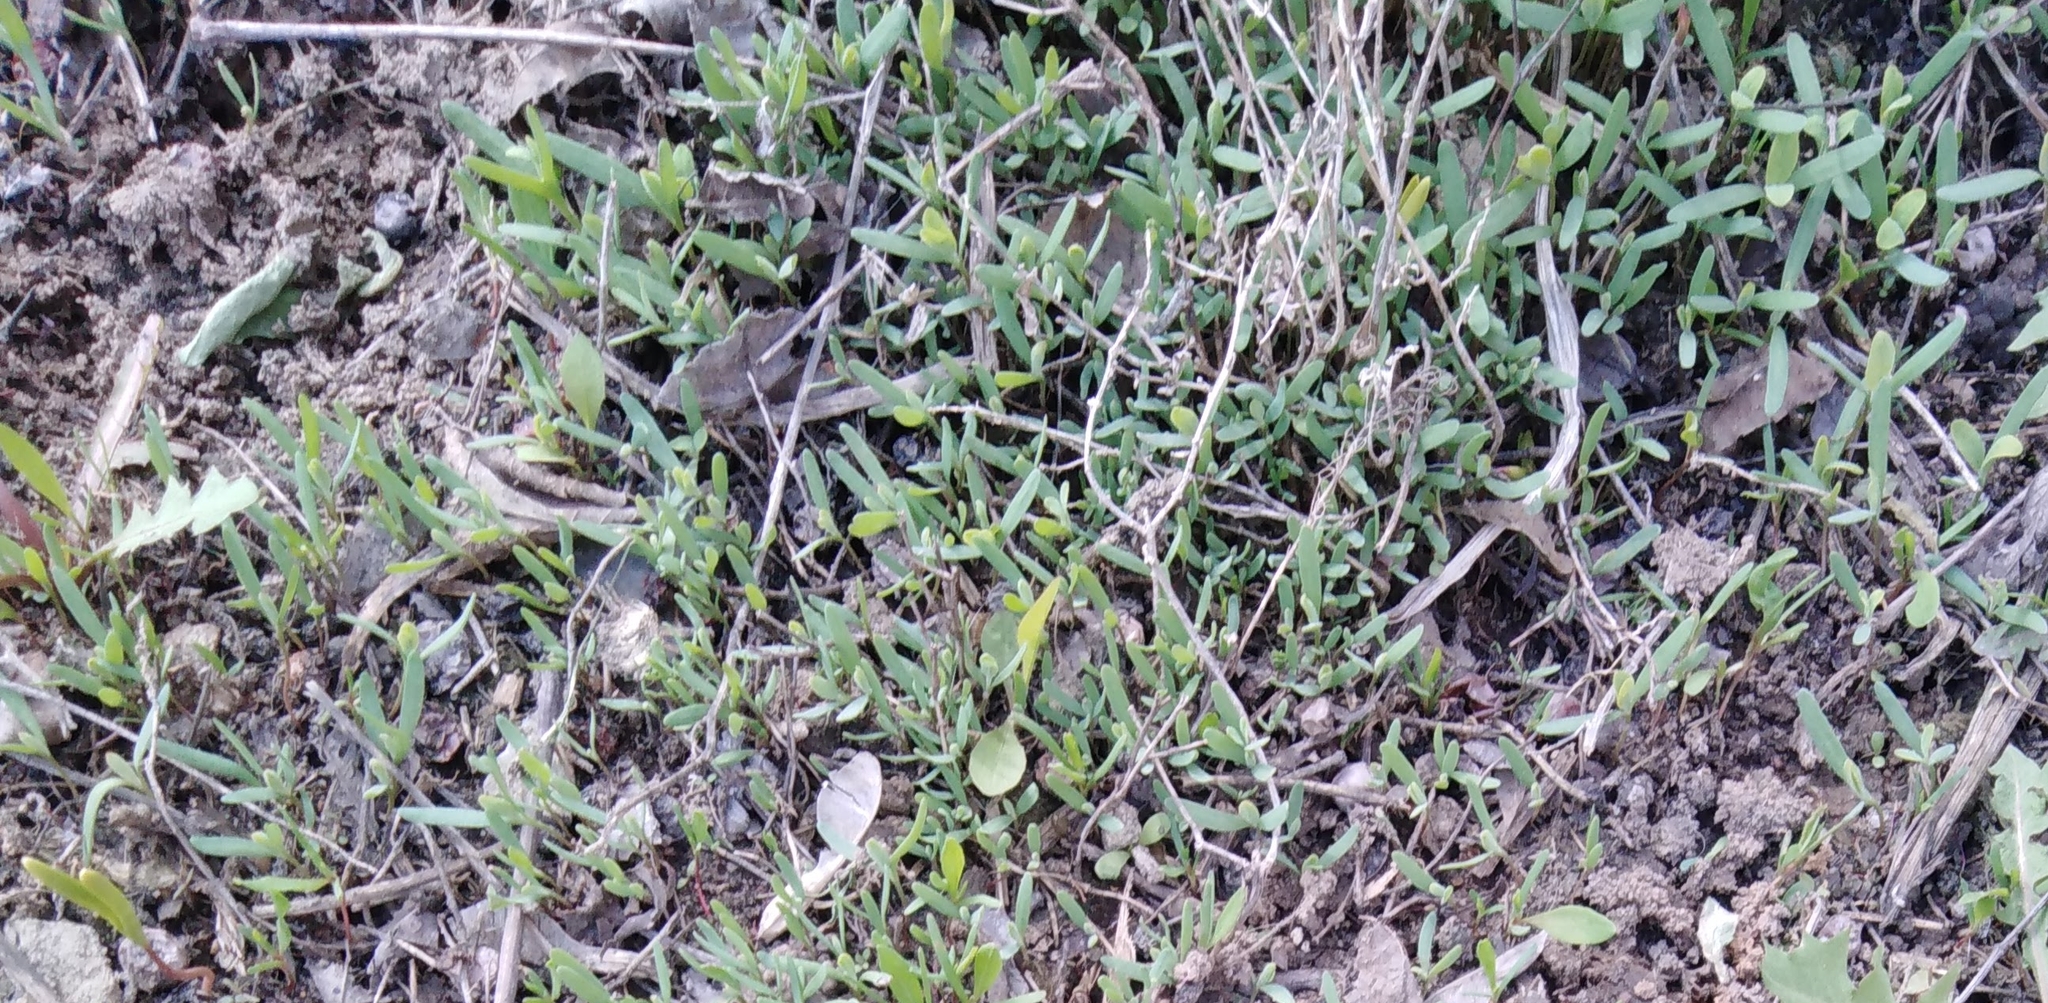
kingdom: Plantae
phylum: Tracheophyta
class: Magnoliopsida
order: Caryophyllales
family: Polygonaceae
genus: Polygonum
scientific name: Polygonum
